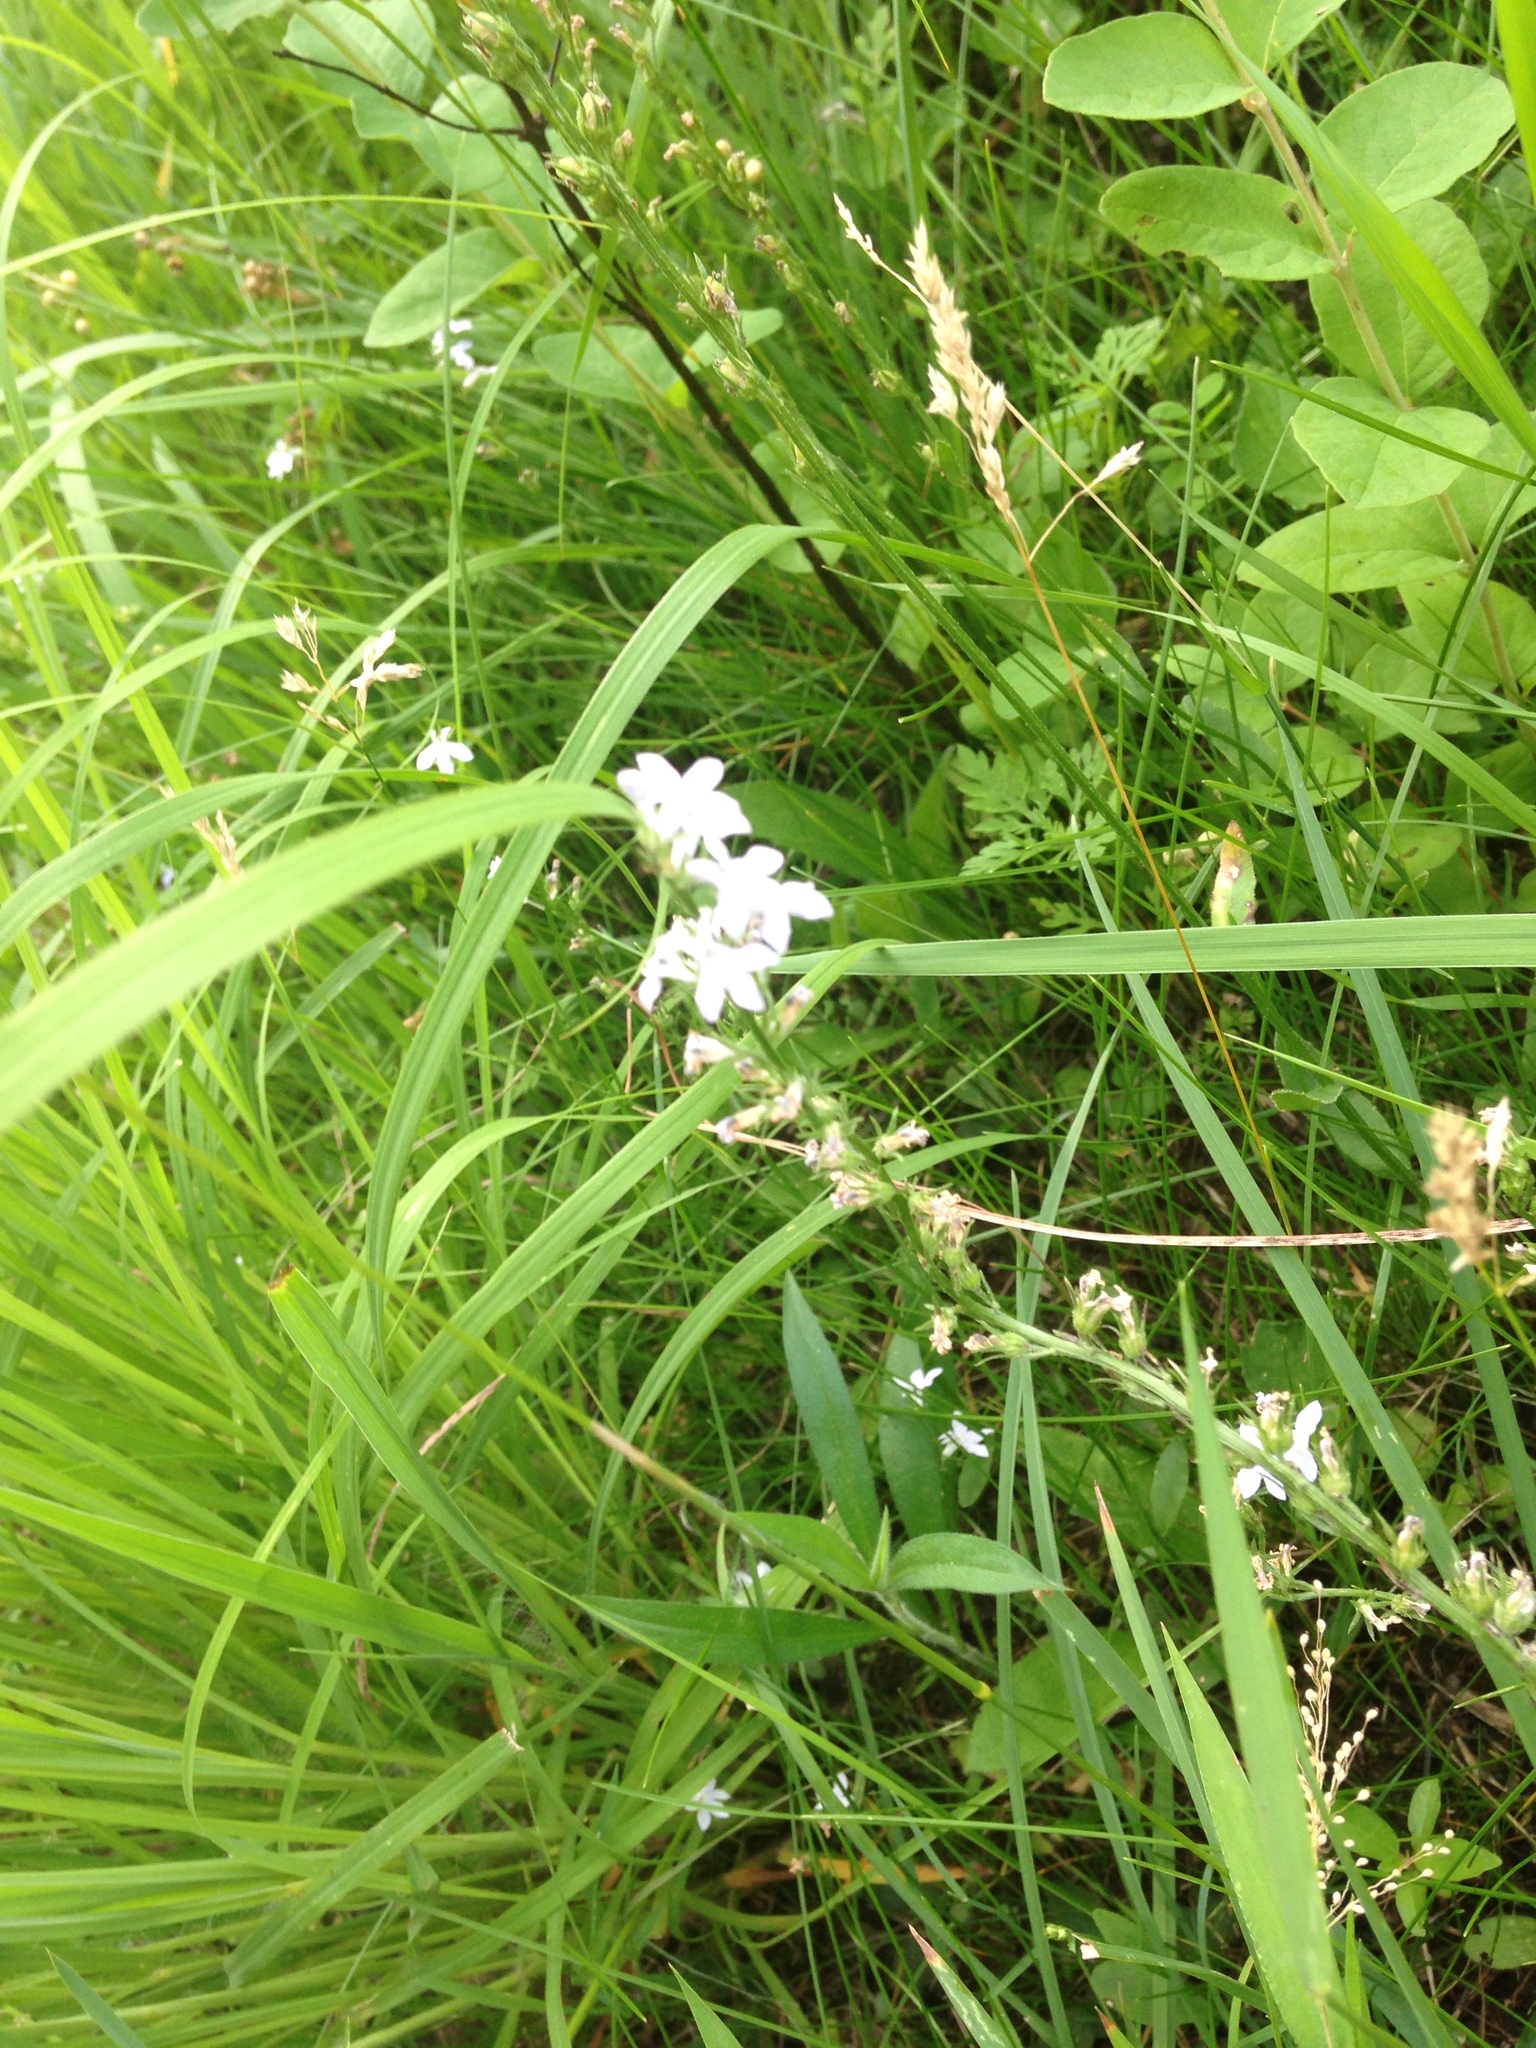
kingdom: Plantae
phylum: Tracheophyta
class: Magnoliopsida
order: Asterales
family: Campanulaceae
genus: Lobelia
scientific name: Lobelia spicata
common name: Pale-spike lobelia
